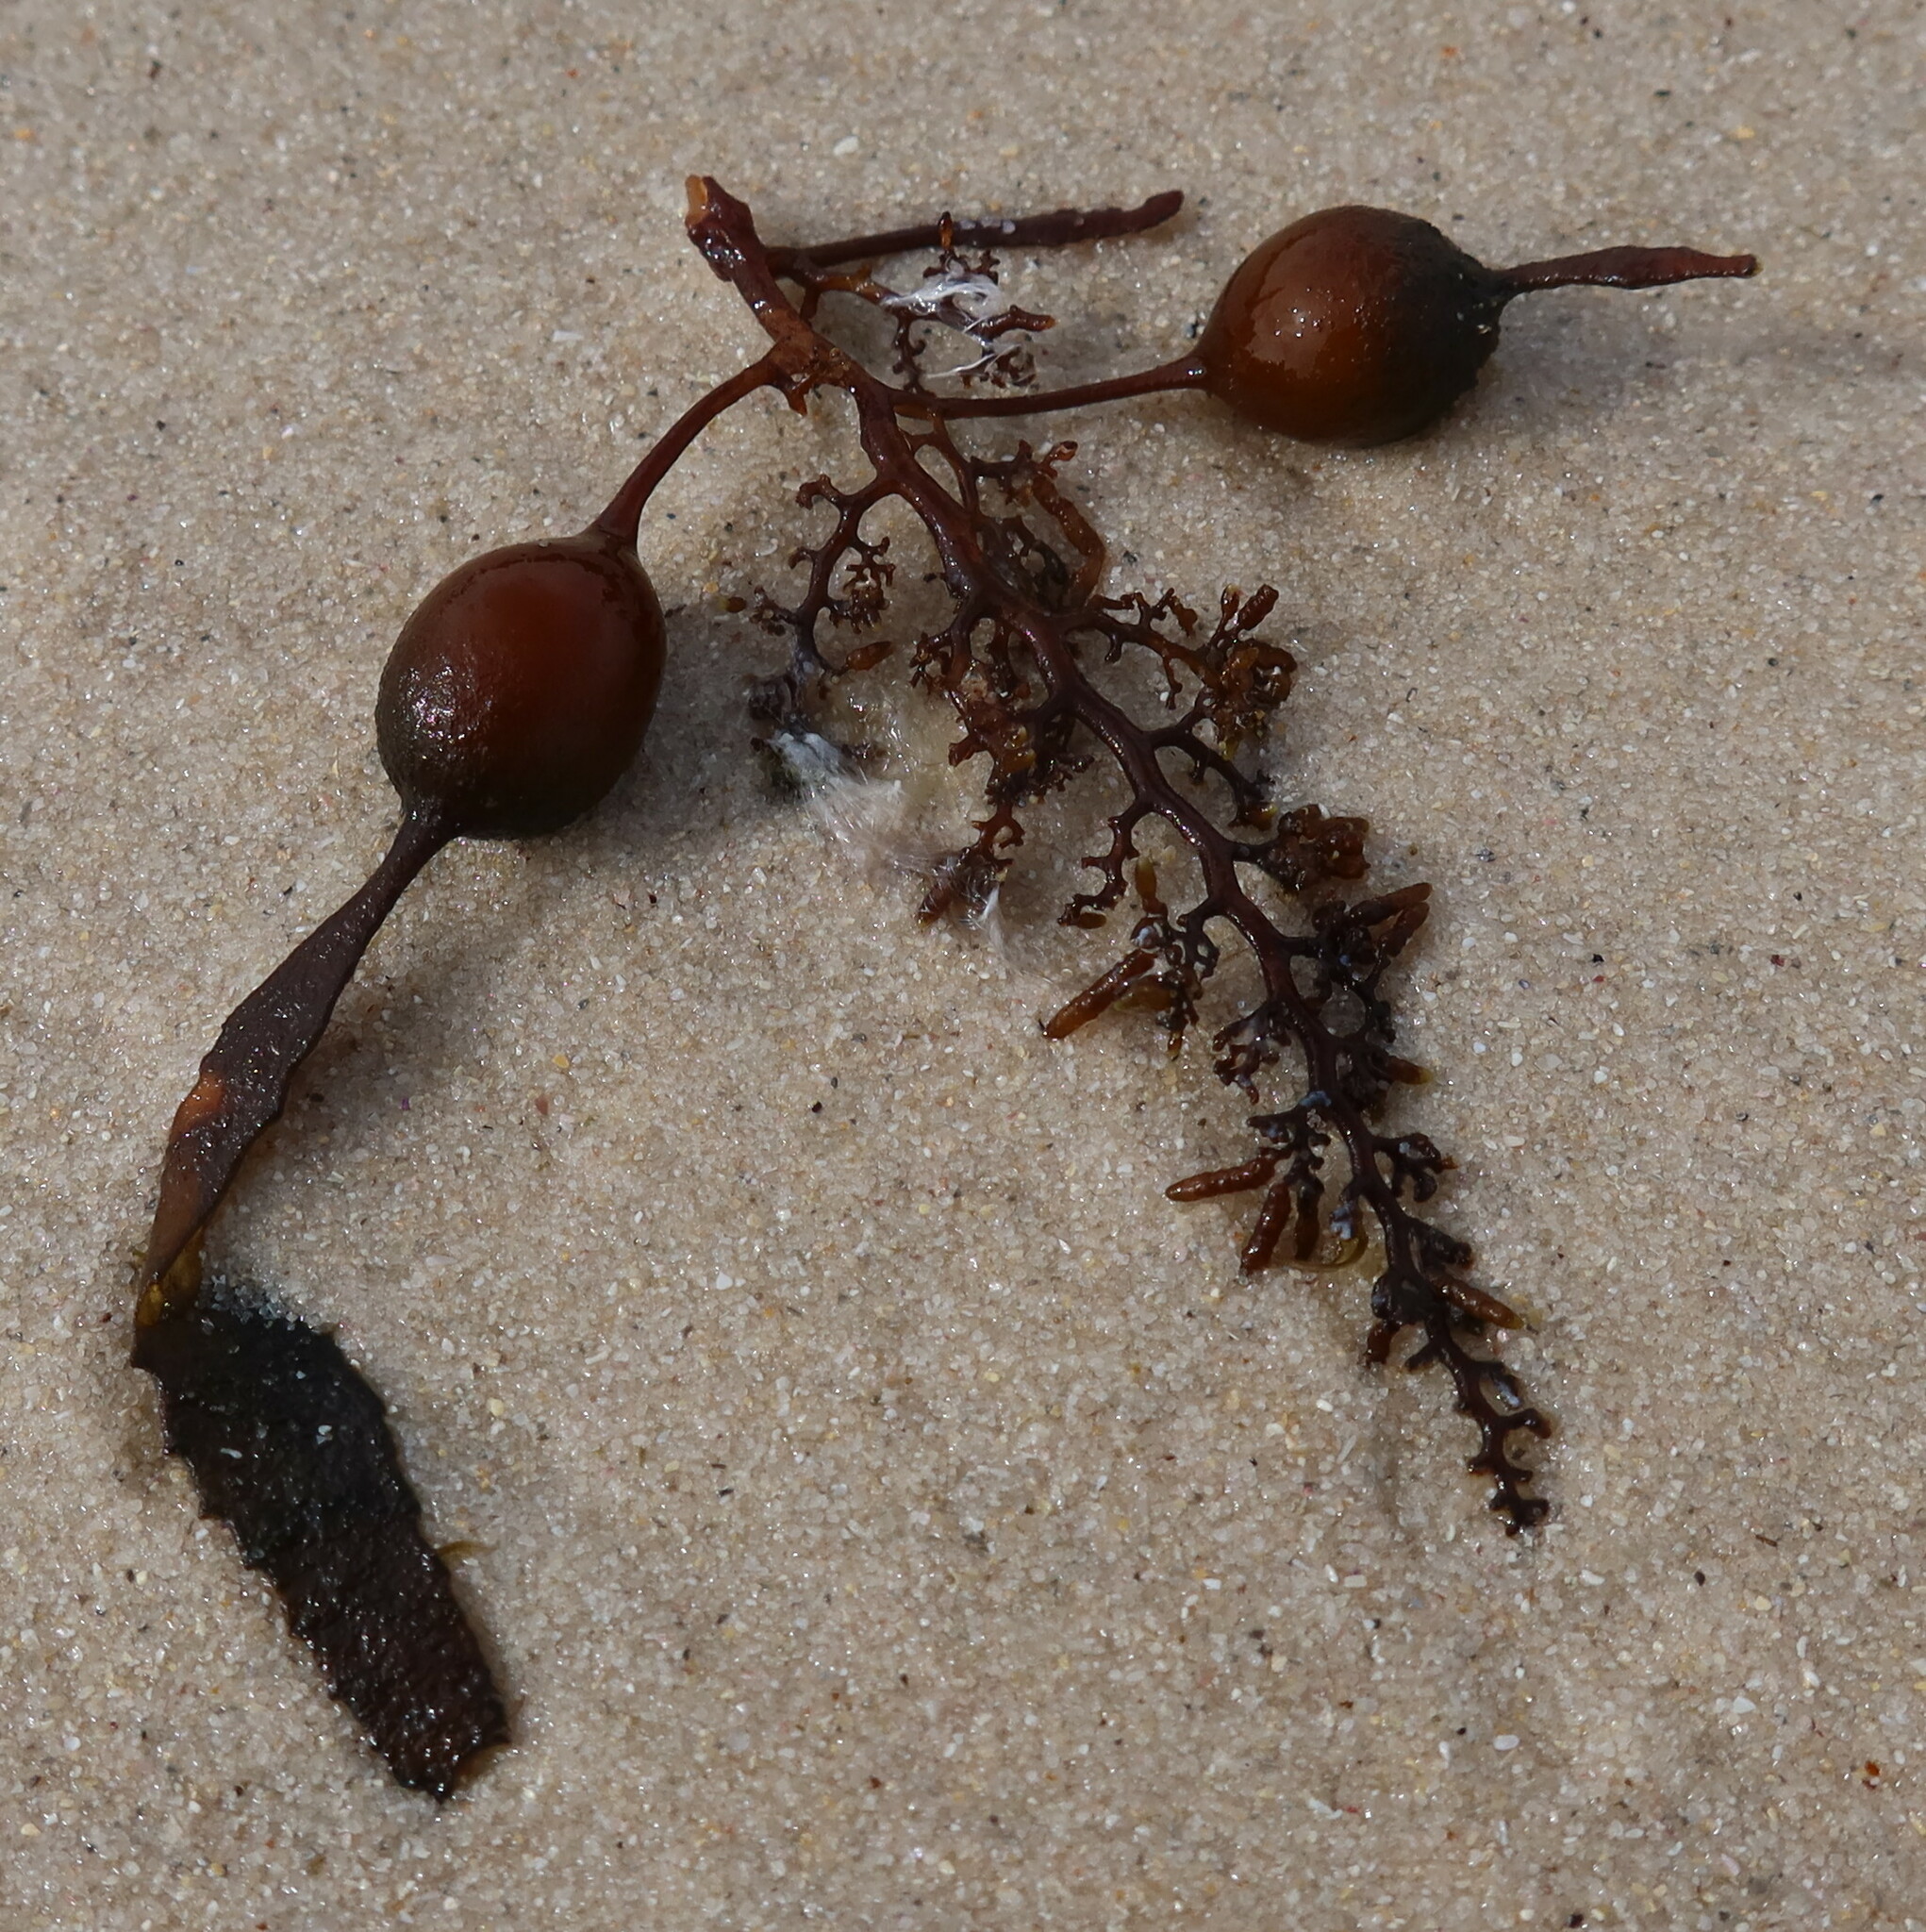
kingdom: Chromista
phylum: Ochrophyta
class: Phaeophyceae
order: Fucales
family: Sargassaceae
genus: Anthophycus
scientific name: Anthophycus
